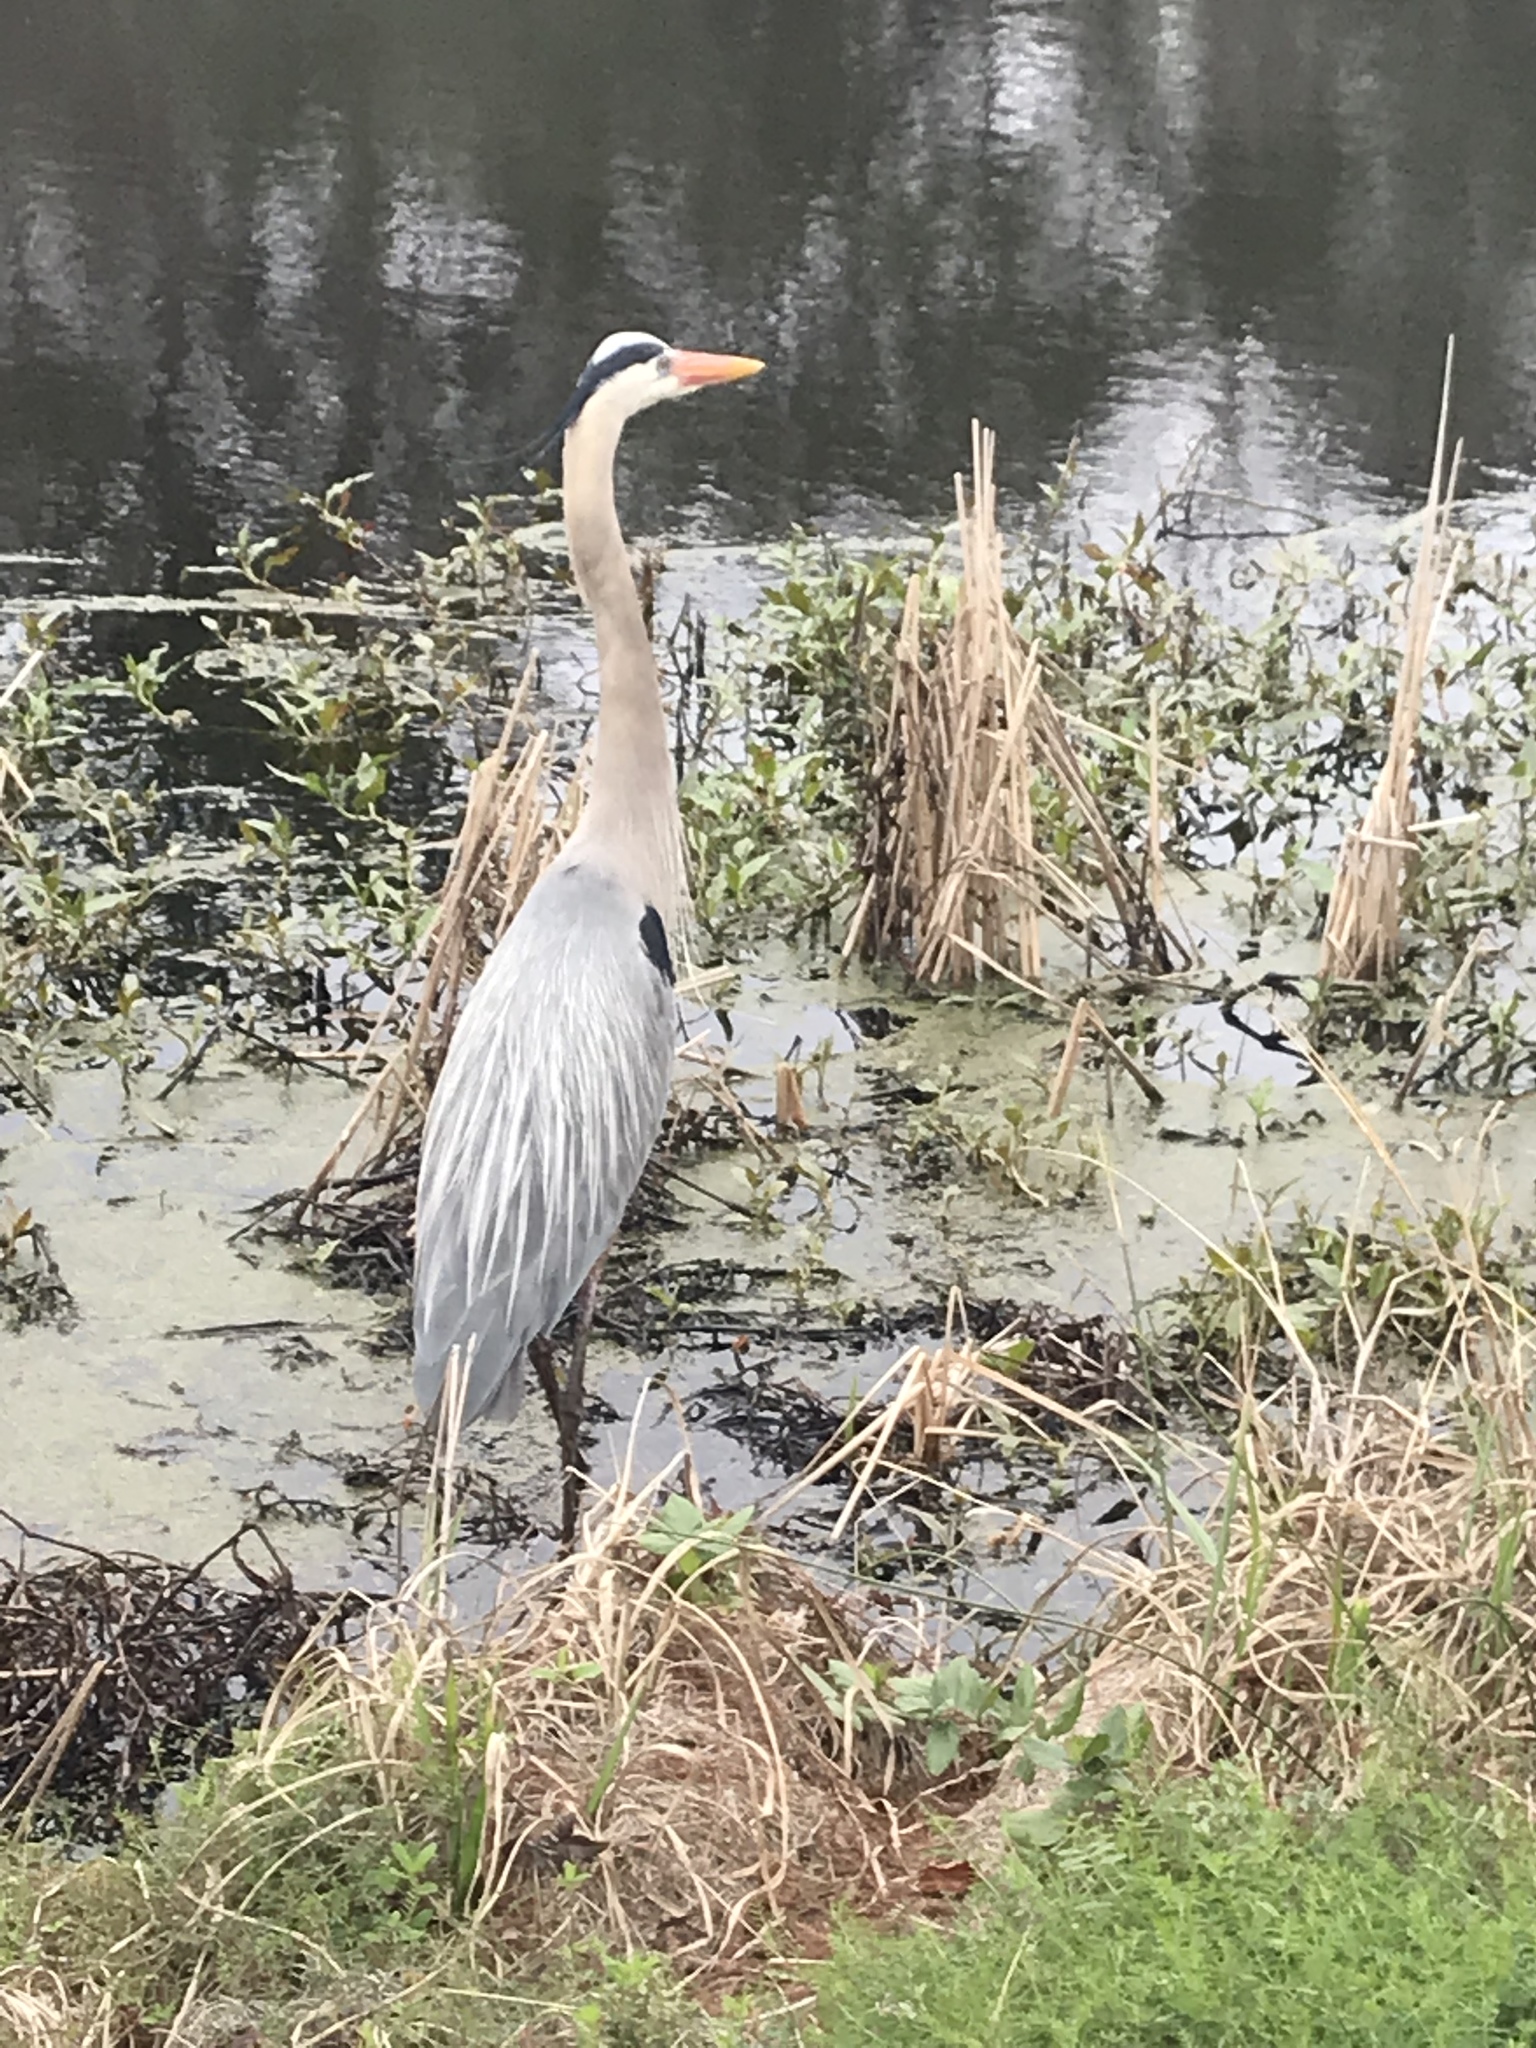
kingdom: Animalia
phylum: Chordata
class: Aves
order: Pelecaniformes
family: Ardeidae
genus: Ardea
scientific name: Ardea herodias
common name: Great blue heron
